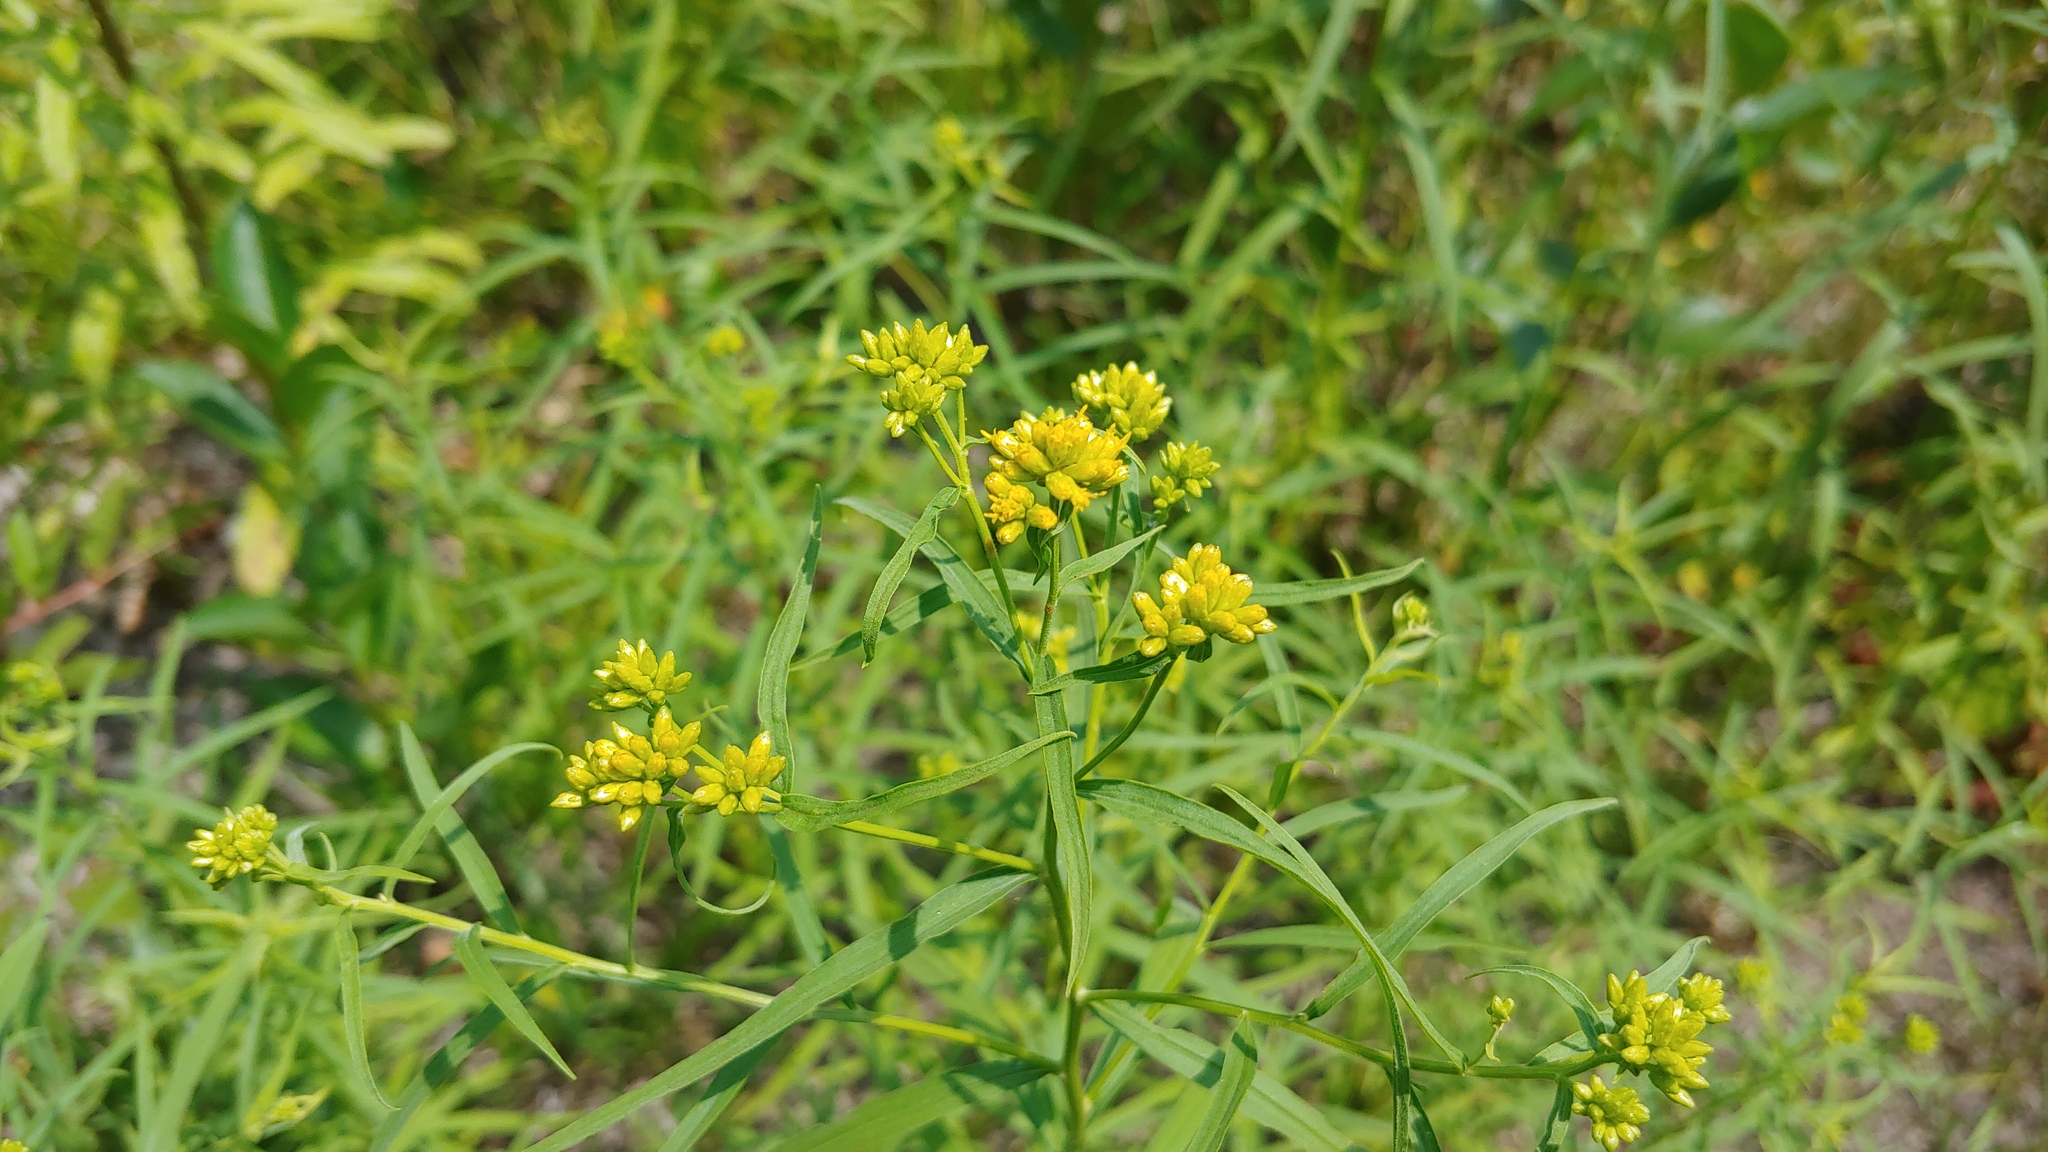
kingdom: Plantae
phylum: Tracheophyta
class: Magnoliopsida
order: Asterales
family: Asteraceae
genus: Euthamia
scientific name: Euthamia graminifolia
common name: Common goldentop
